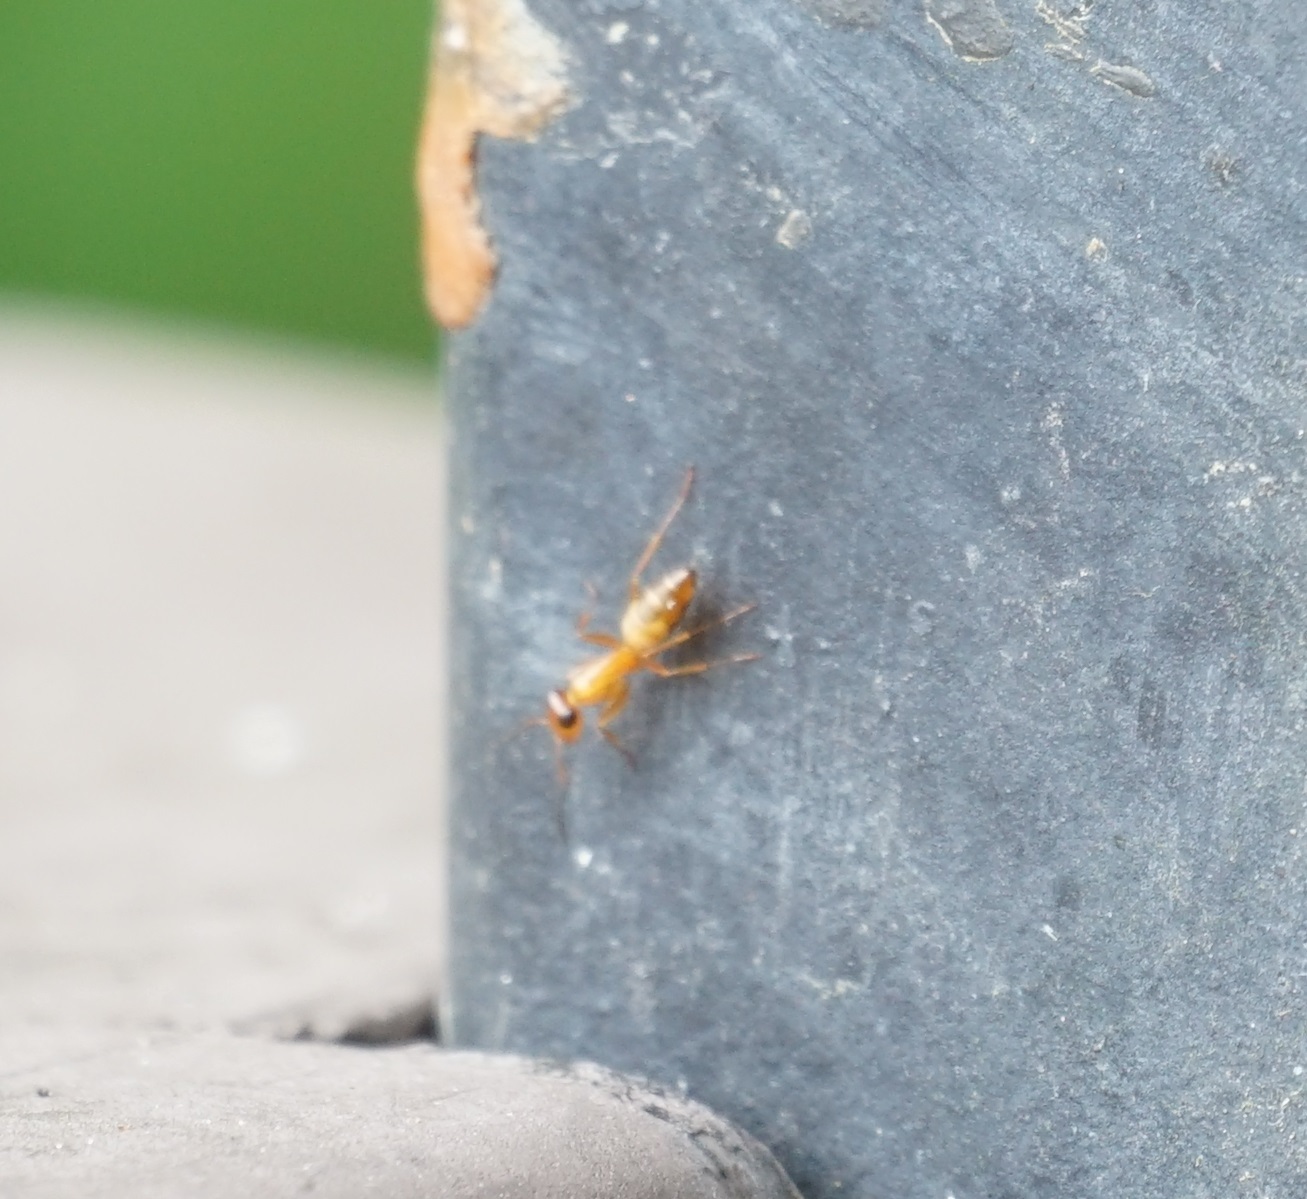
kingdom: Animalia
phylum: Arthropoda
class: Insecta
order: Hymenoptera
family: Formicidae
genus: Opisthopsis
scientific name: Opisthopsis jocosus
